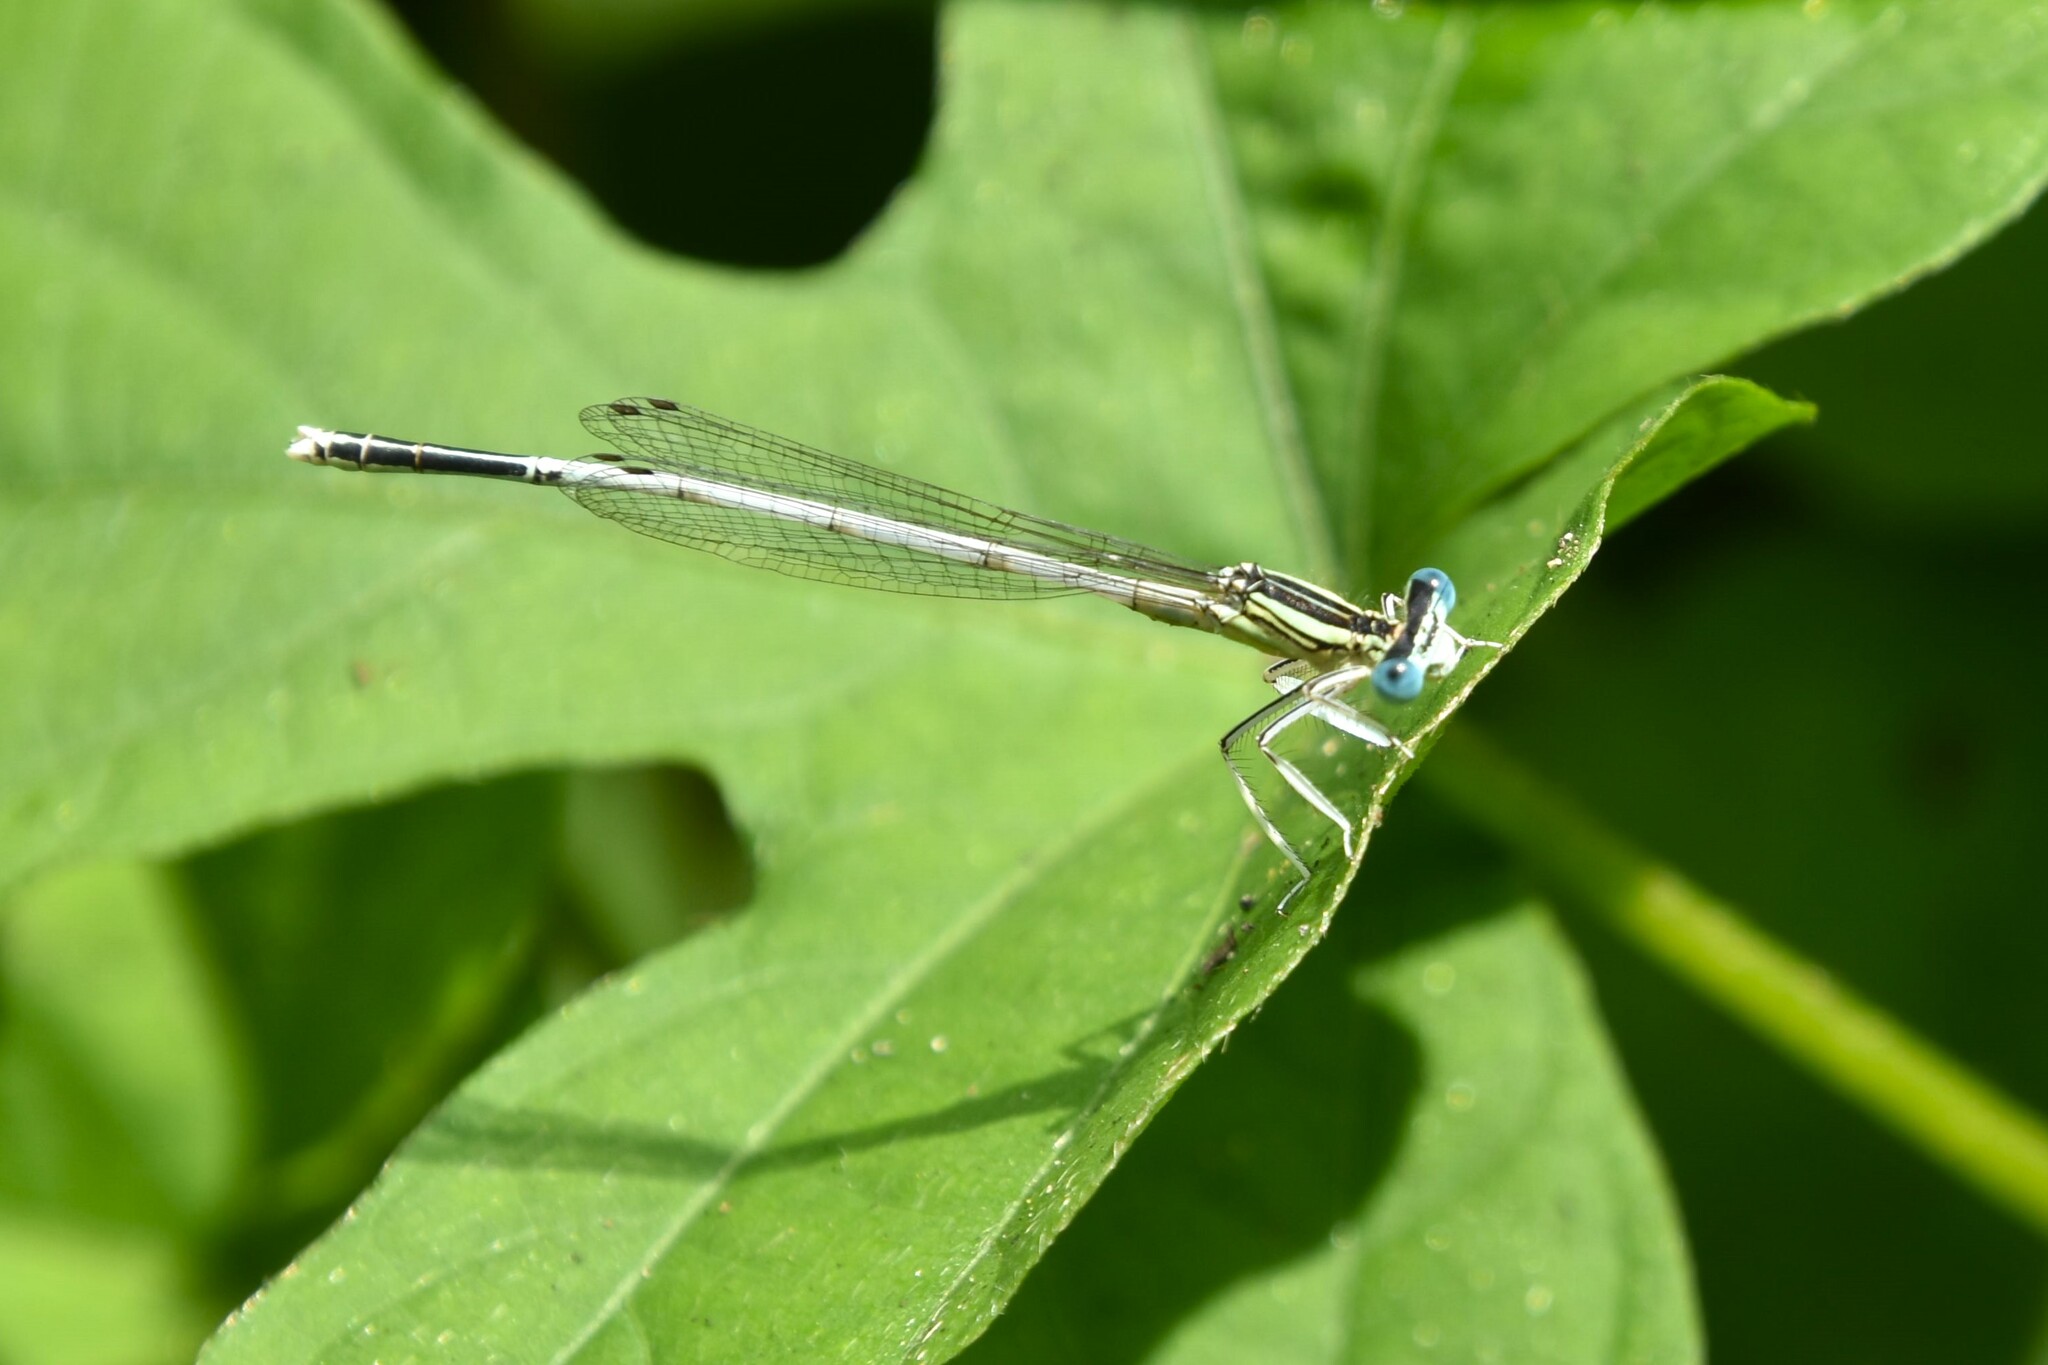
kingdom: Animalia
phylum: Arthropoda
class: Insecta
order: Odonata
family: Platycnemididae
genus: Platycnemis
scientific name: Platycnemis latipes
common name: White featherleg
